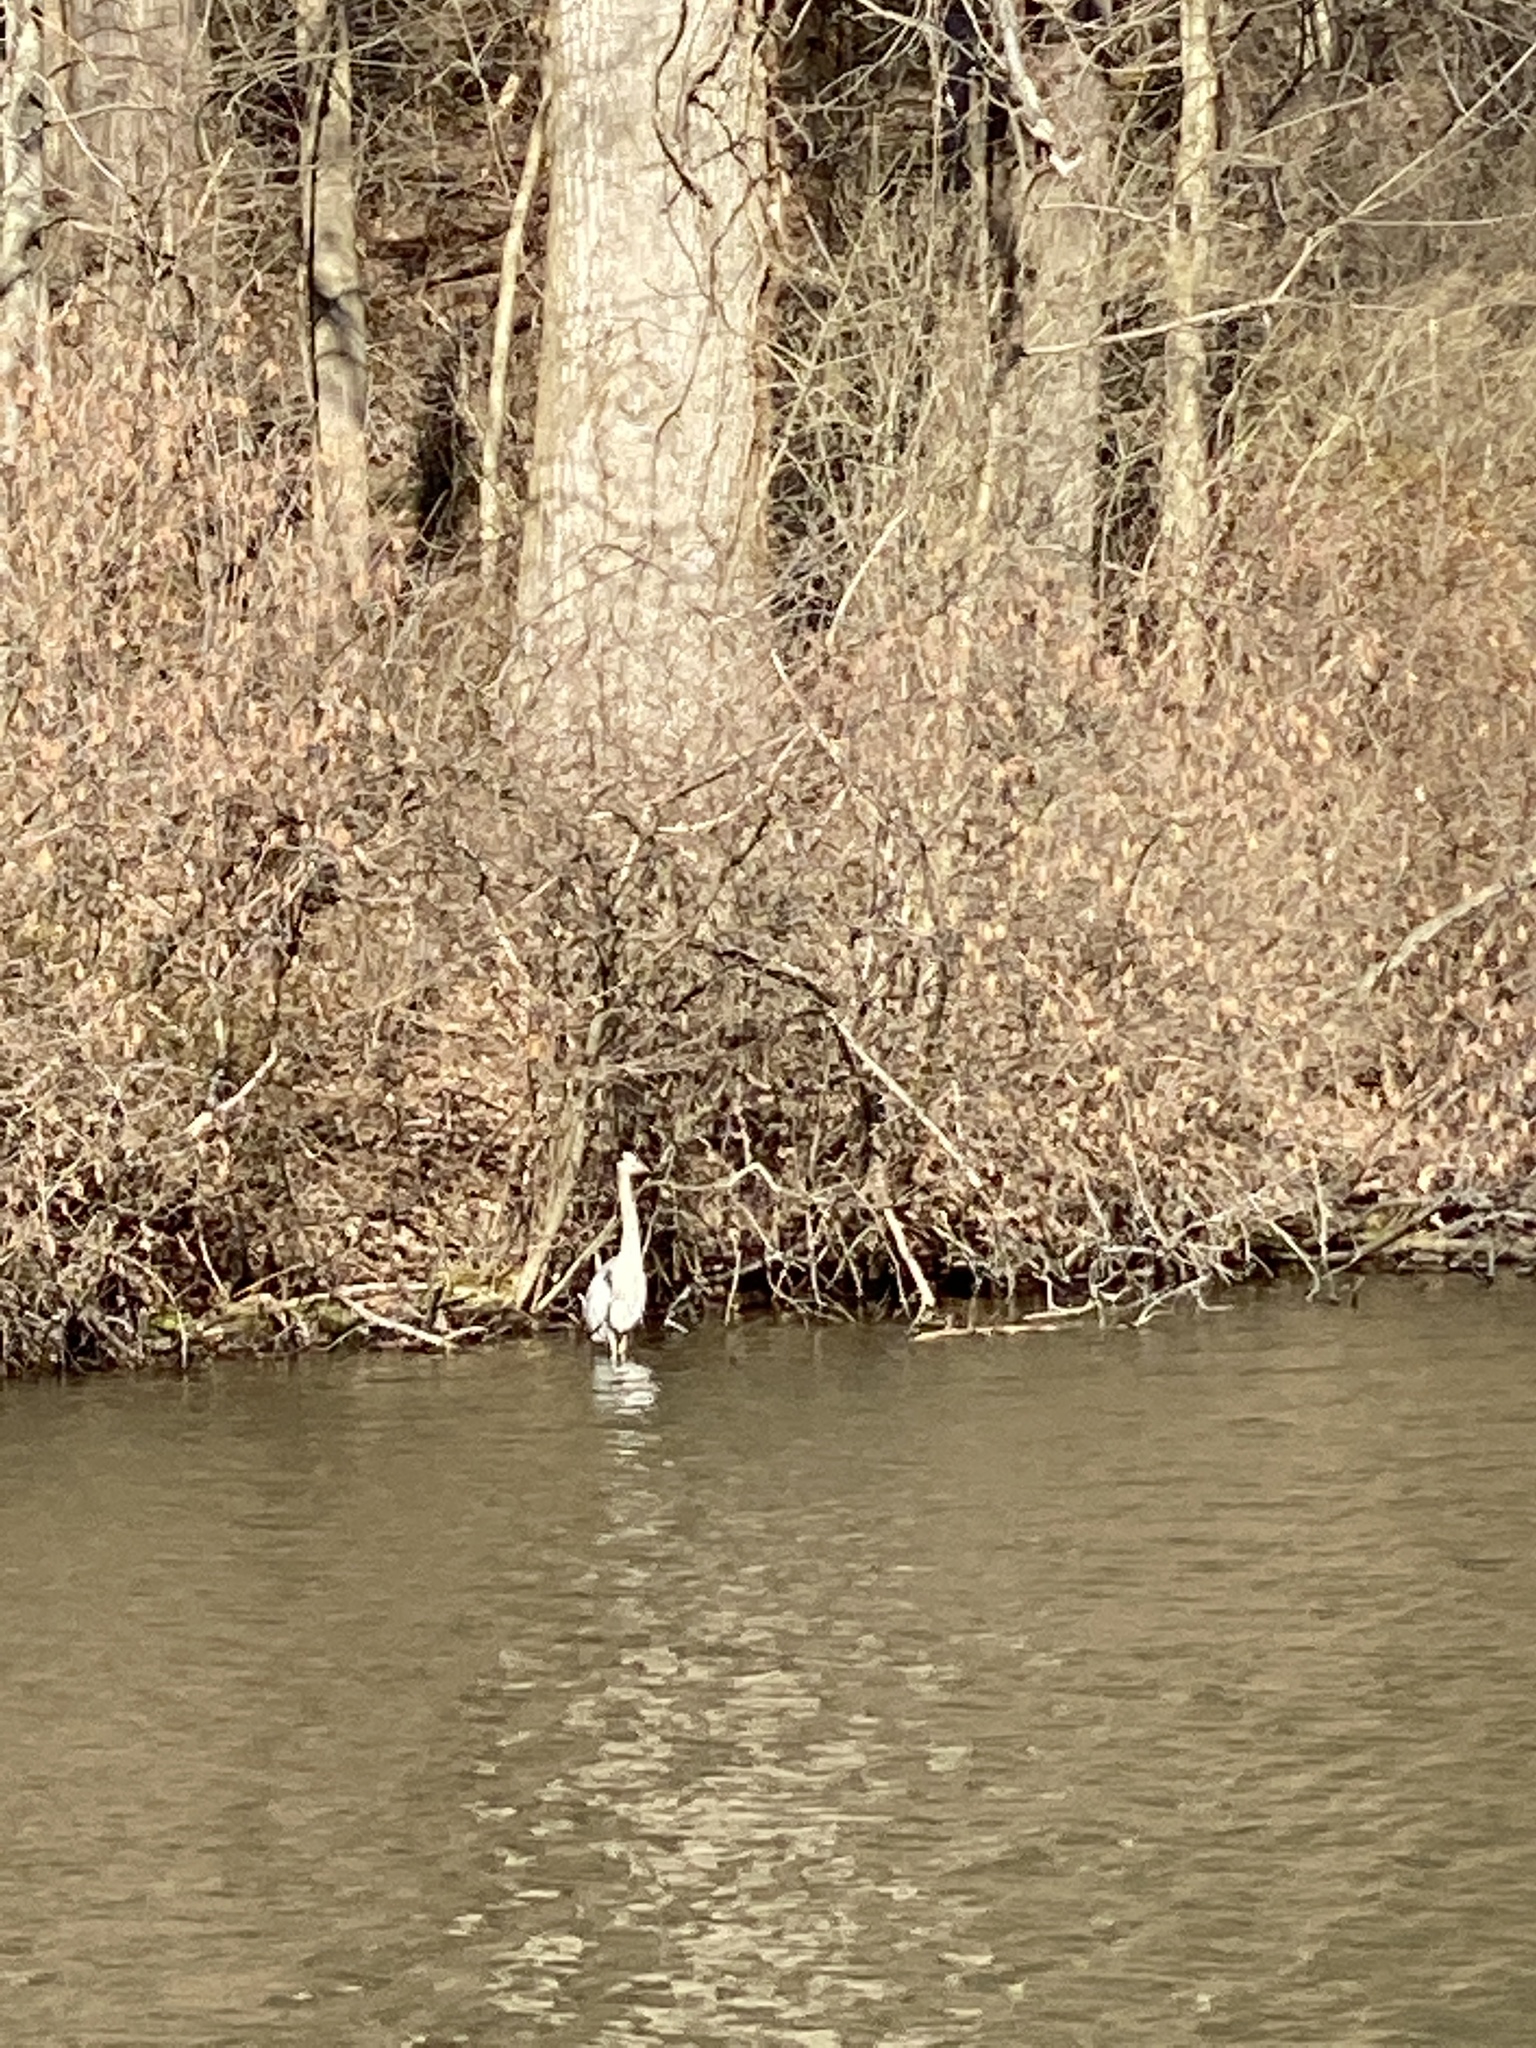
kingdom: Animalia
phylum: Chordata
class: Aves
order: Pelecaniformes
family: Ardeidae
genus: Ardea
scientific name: Ardea herodias
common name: Great blue heron
